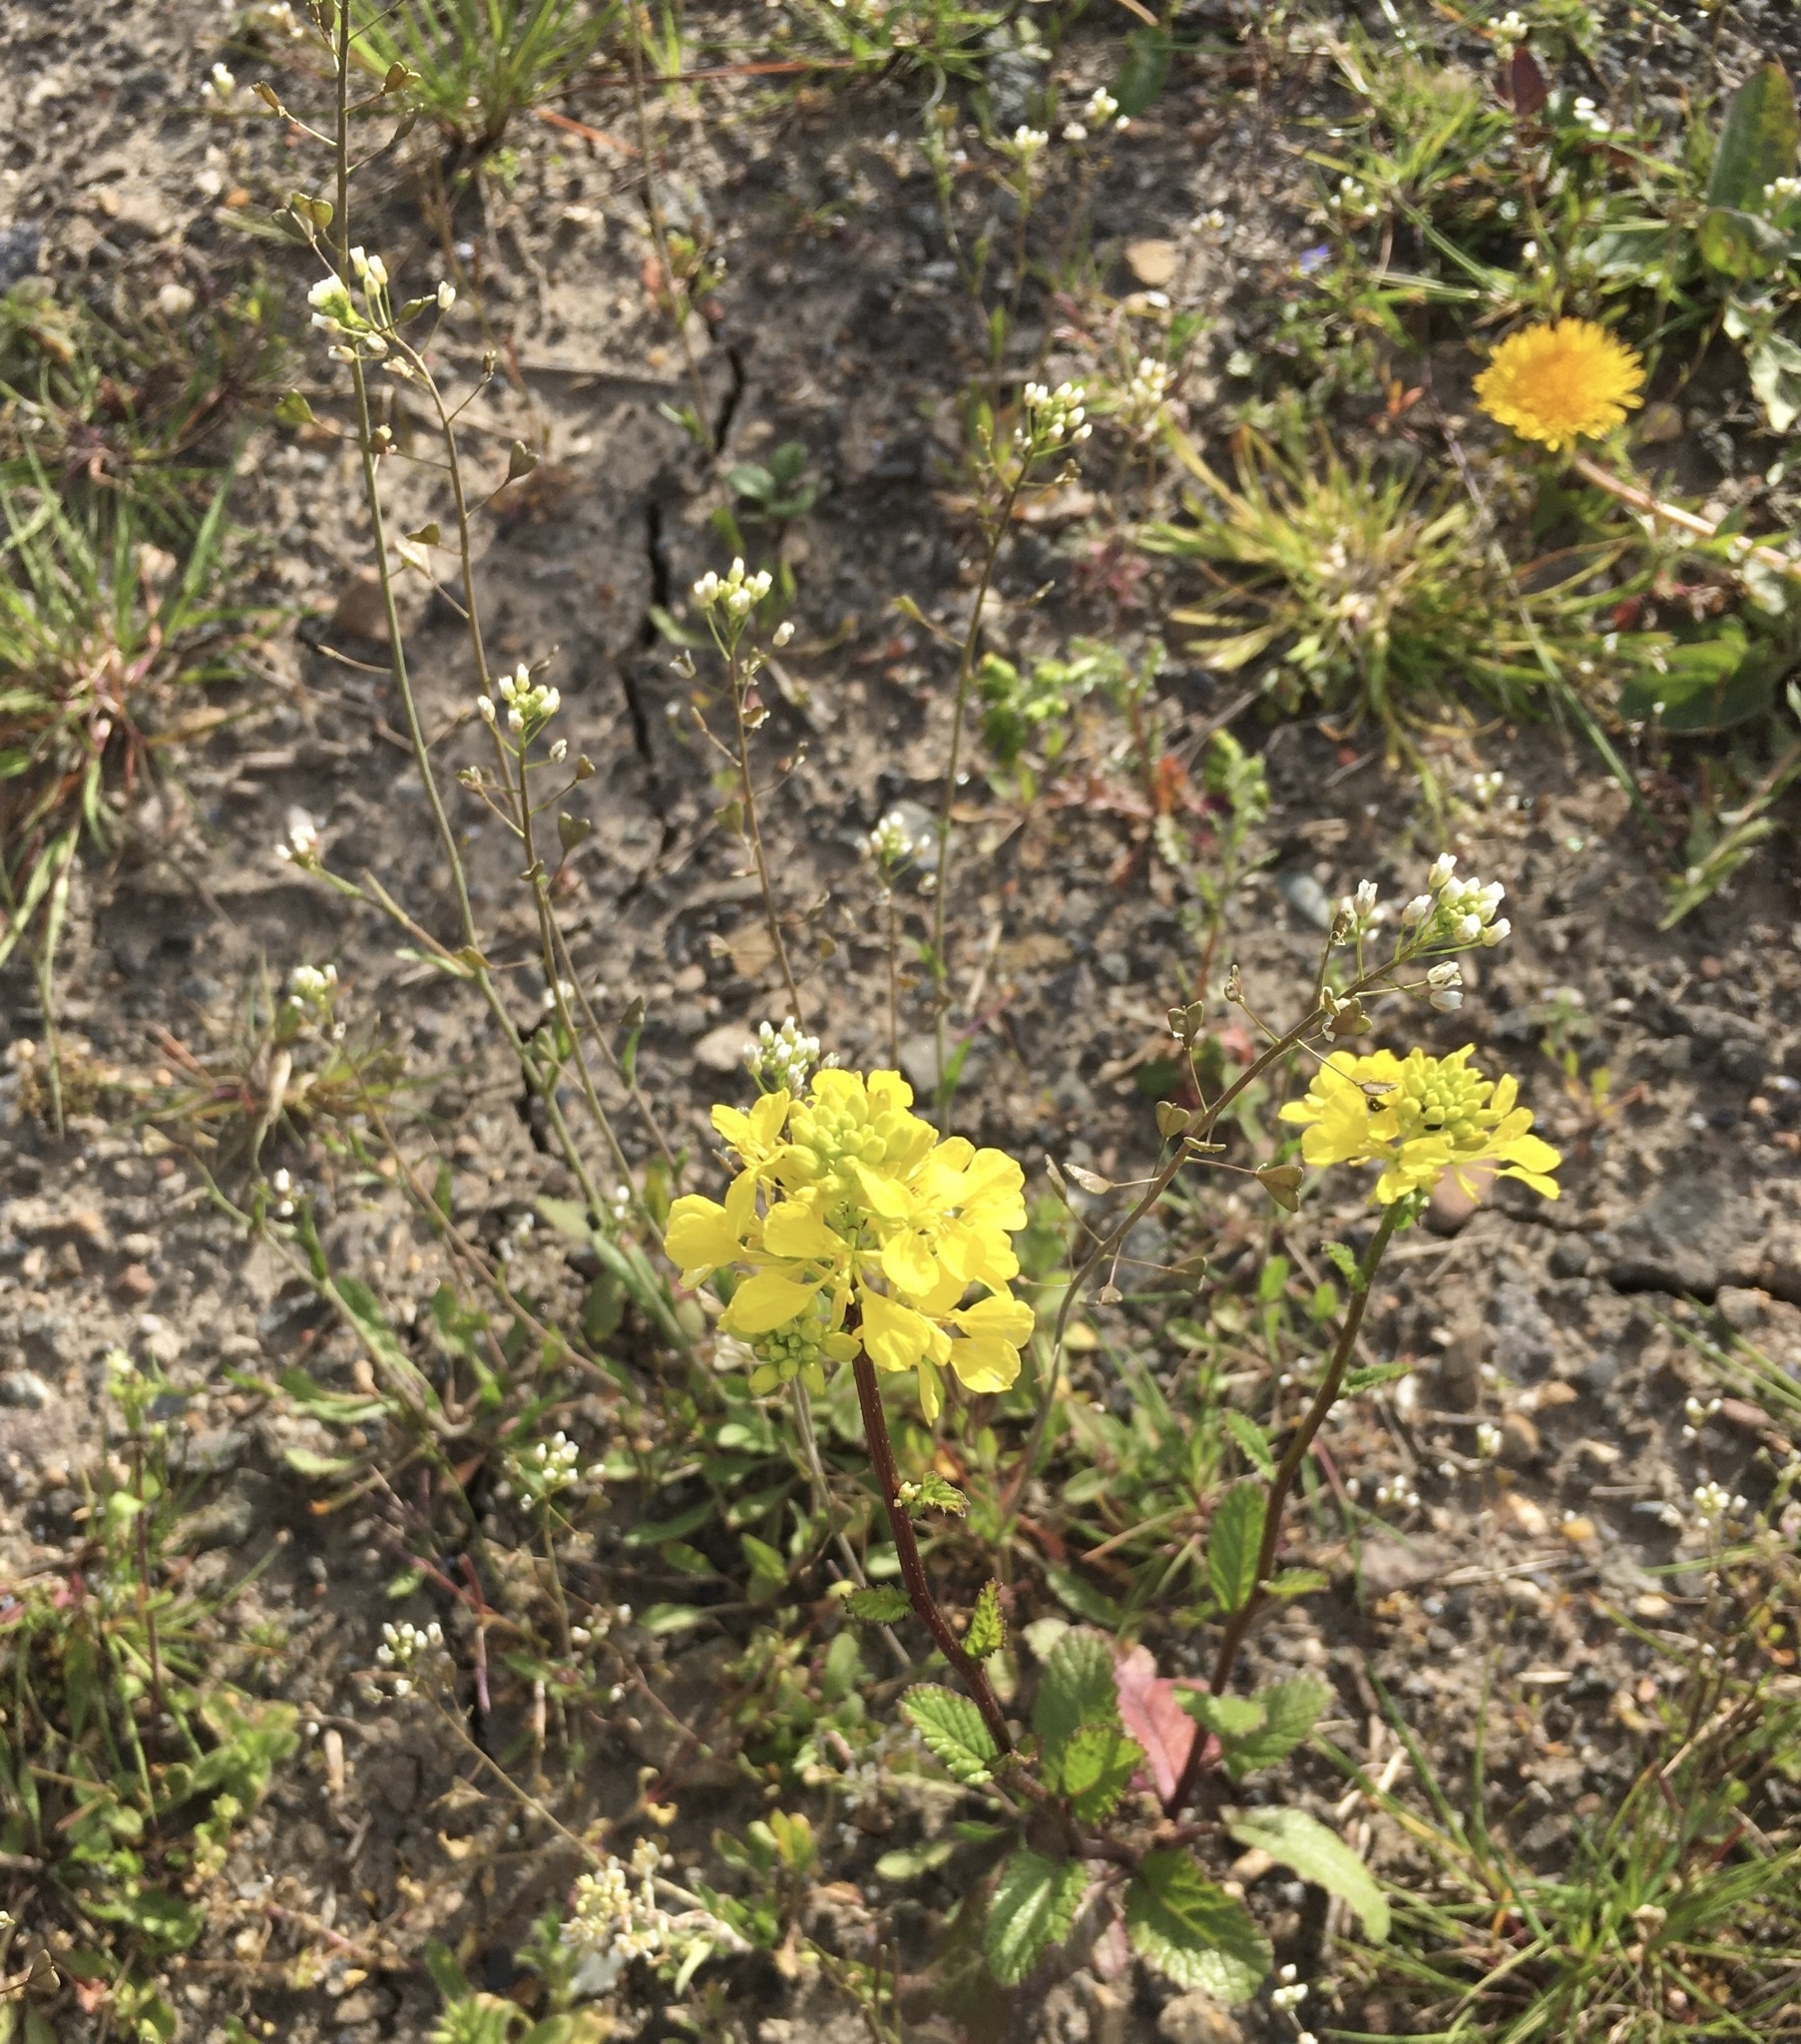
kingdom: Plantae
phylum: Tracheophyta
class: Magnoliopsida
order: Brassicales
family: Brassicaceae
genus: Sinapis
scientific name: Sinapis arvensis
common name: Charlock
